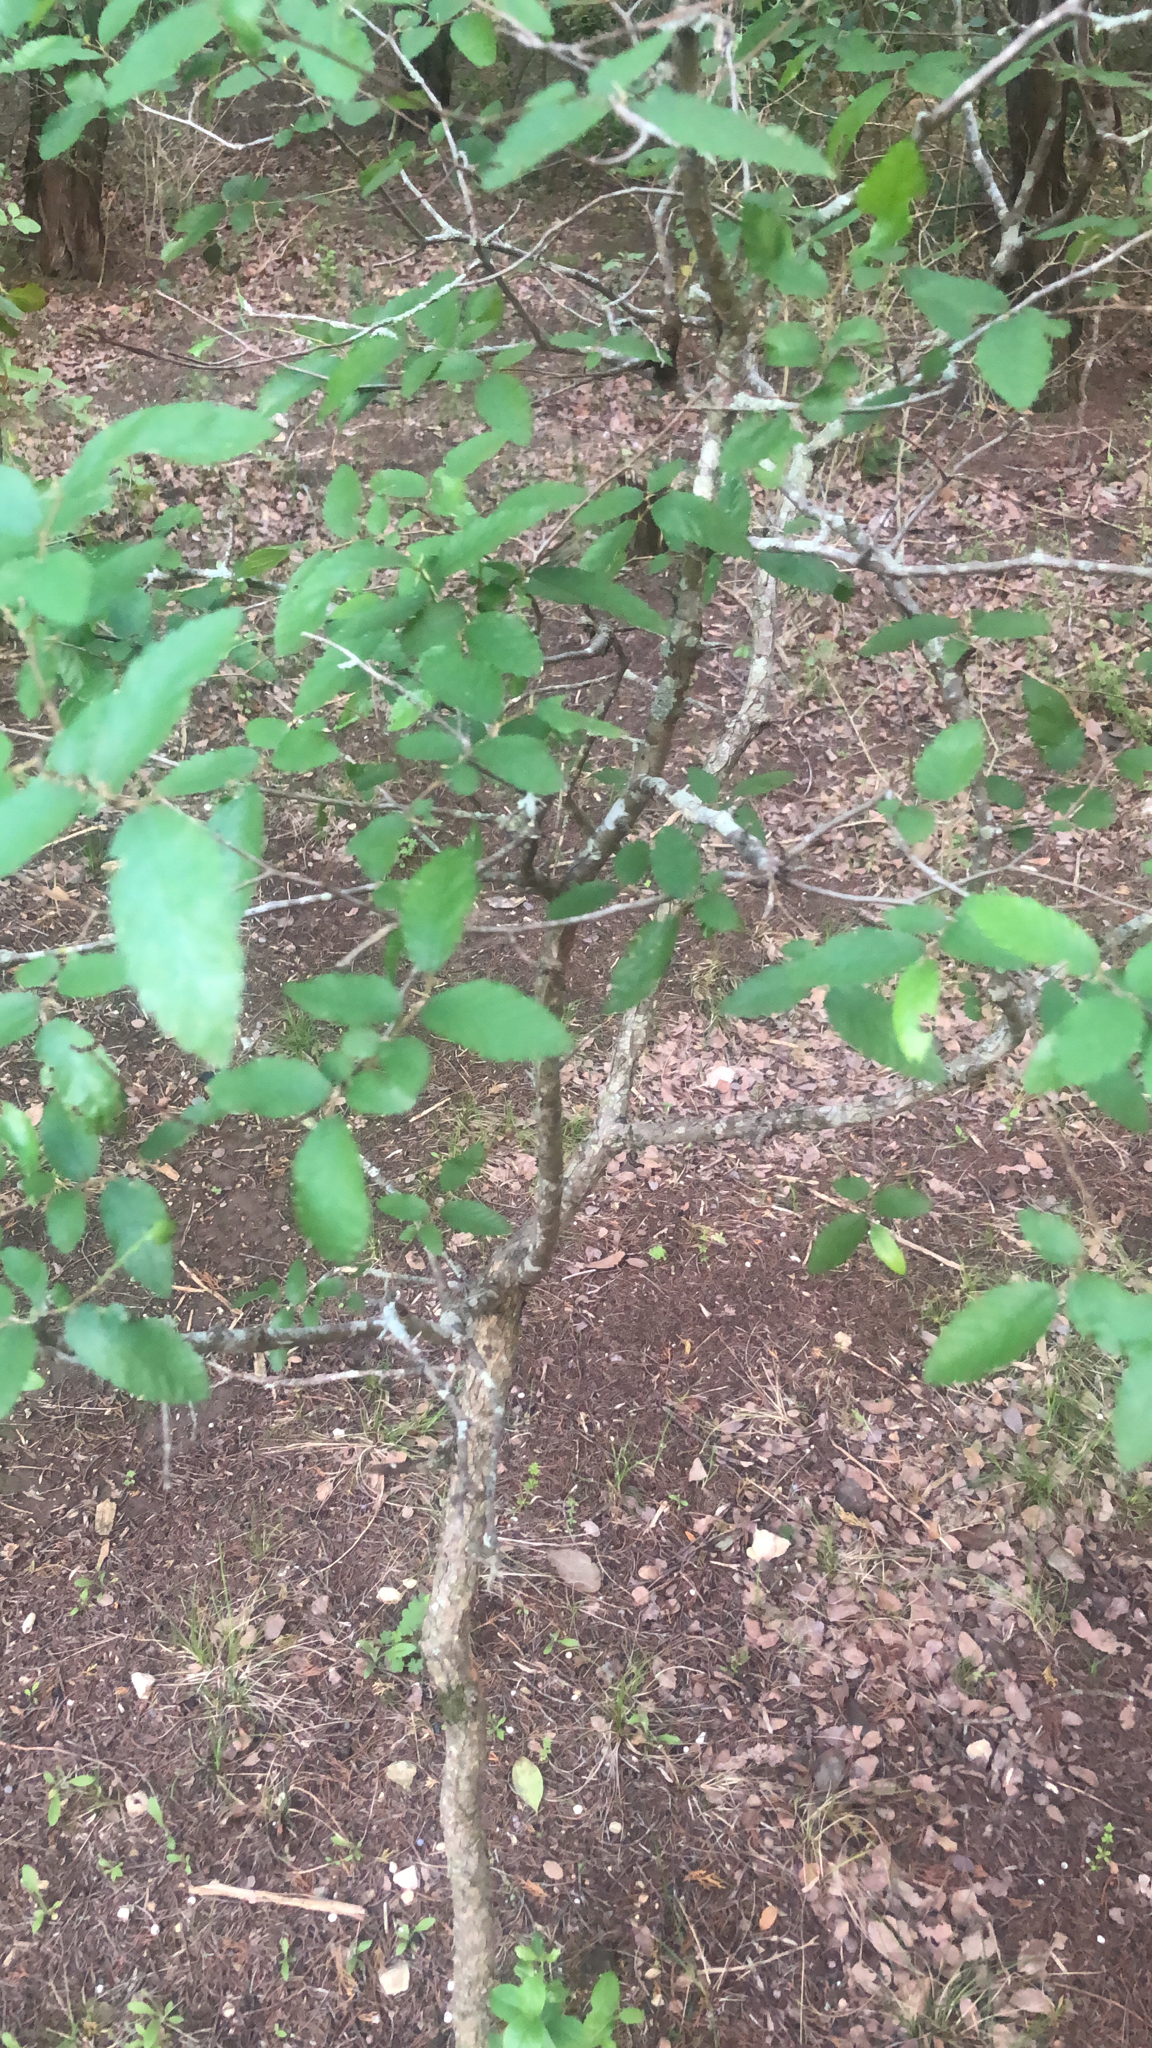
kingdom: Plantae
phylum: Tracheophyta
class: Magnoliopsida
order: Rosales
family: Ulmaceae
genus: Ulmus
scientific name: Ulmus crassifolia
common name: Basket elm
